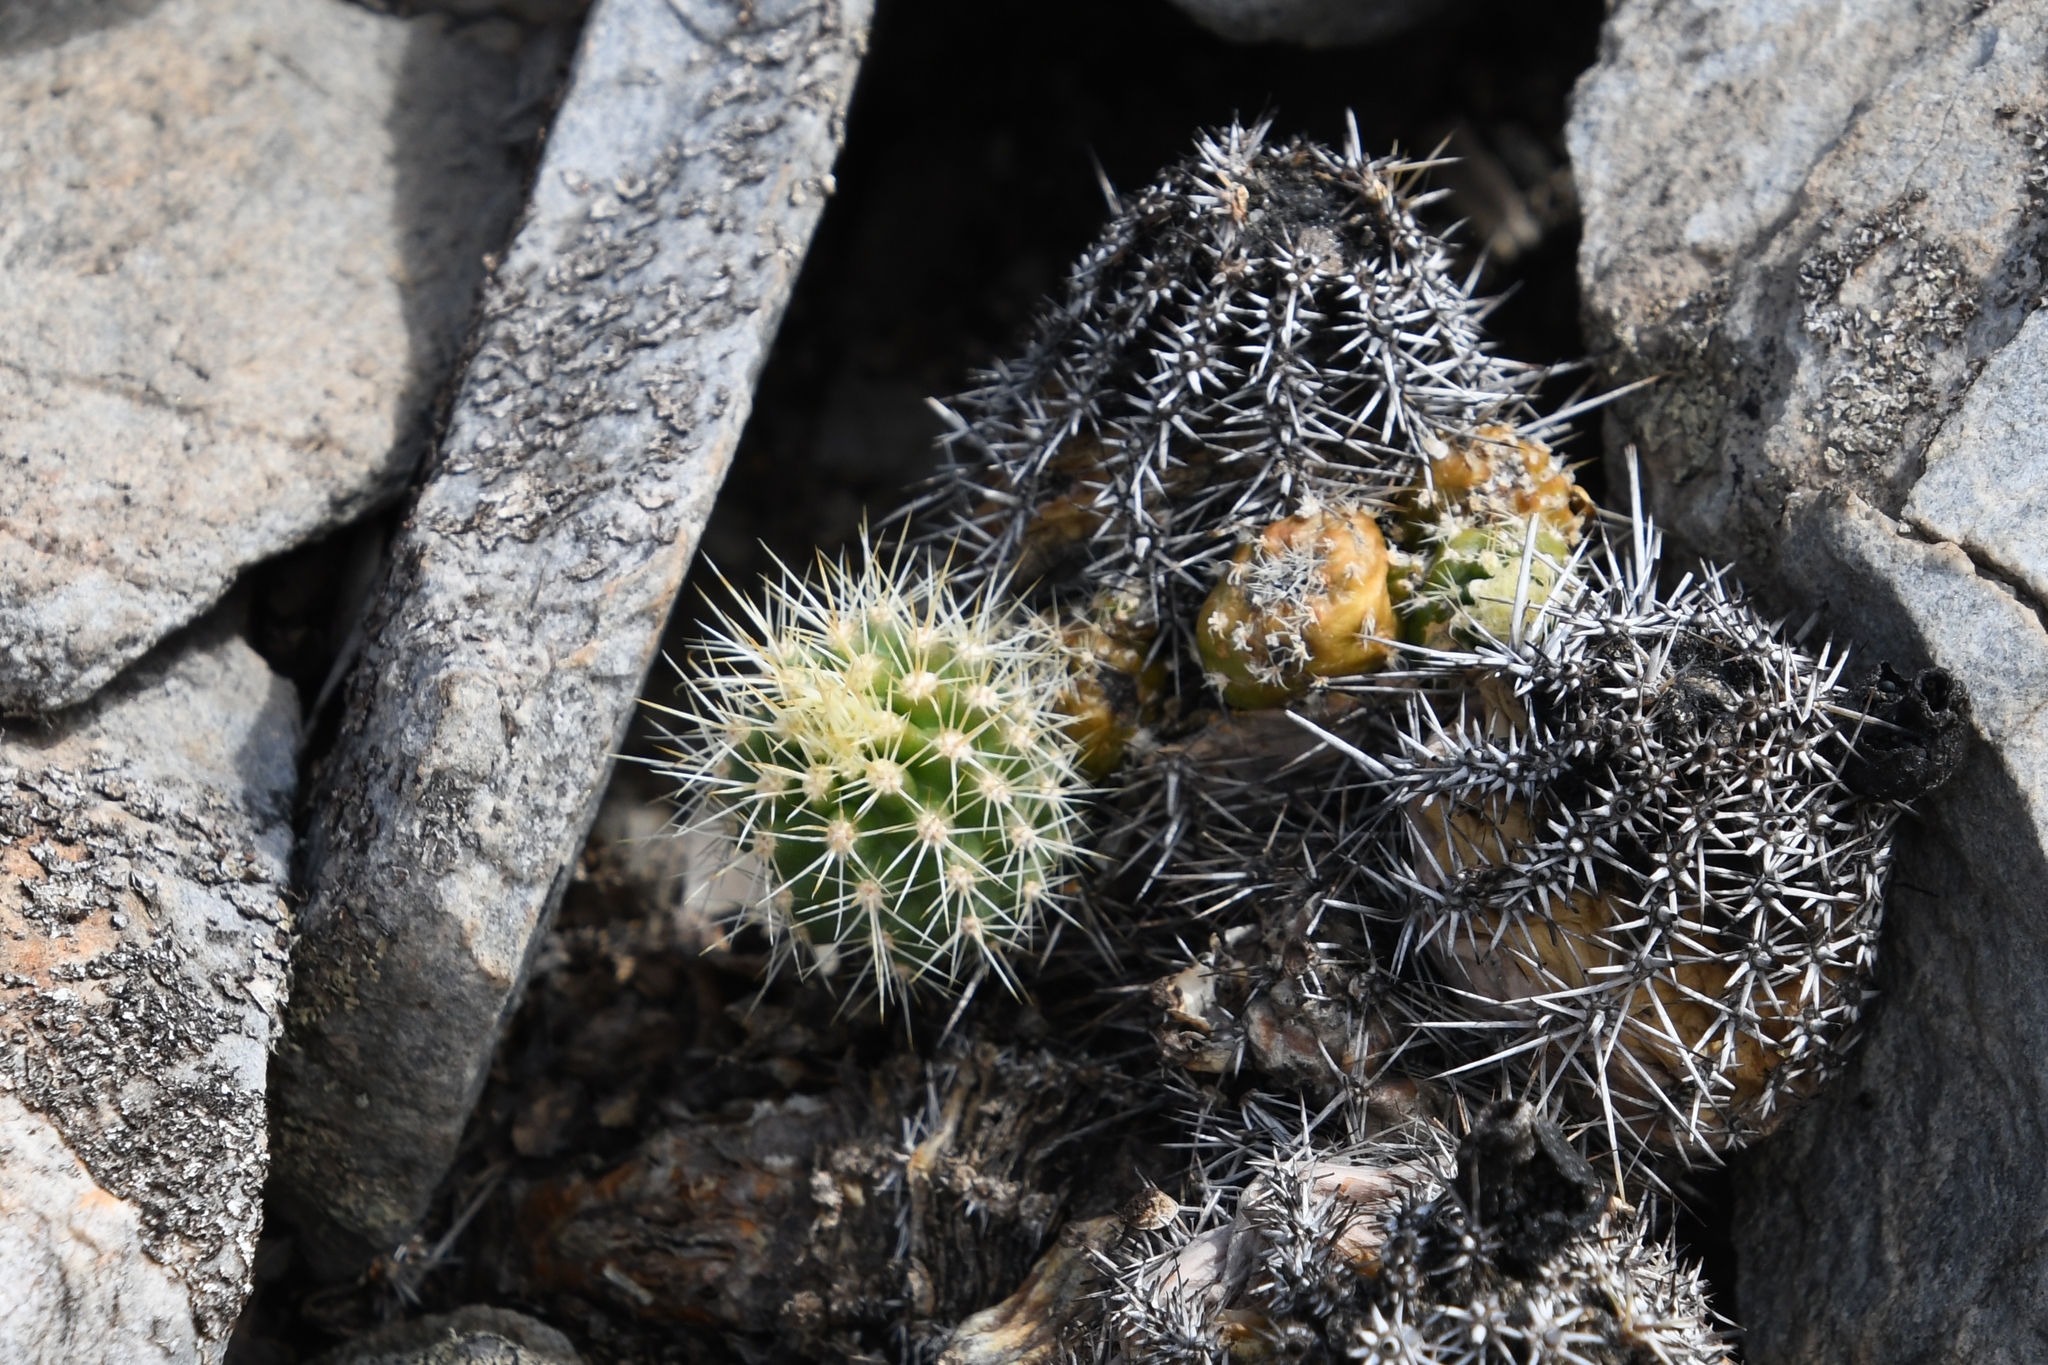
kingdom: Plantae
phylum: Tracheophyta
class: Magnoliopsida
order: Caryophyllales
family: Cactaceae
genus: Echinocereus
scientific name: Echinocereus coccineus
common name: Scarlet hedgehog cactus
